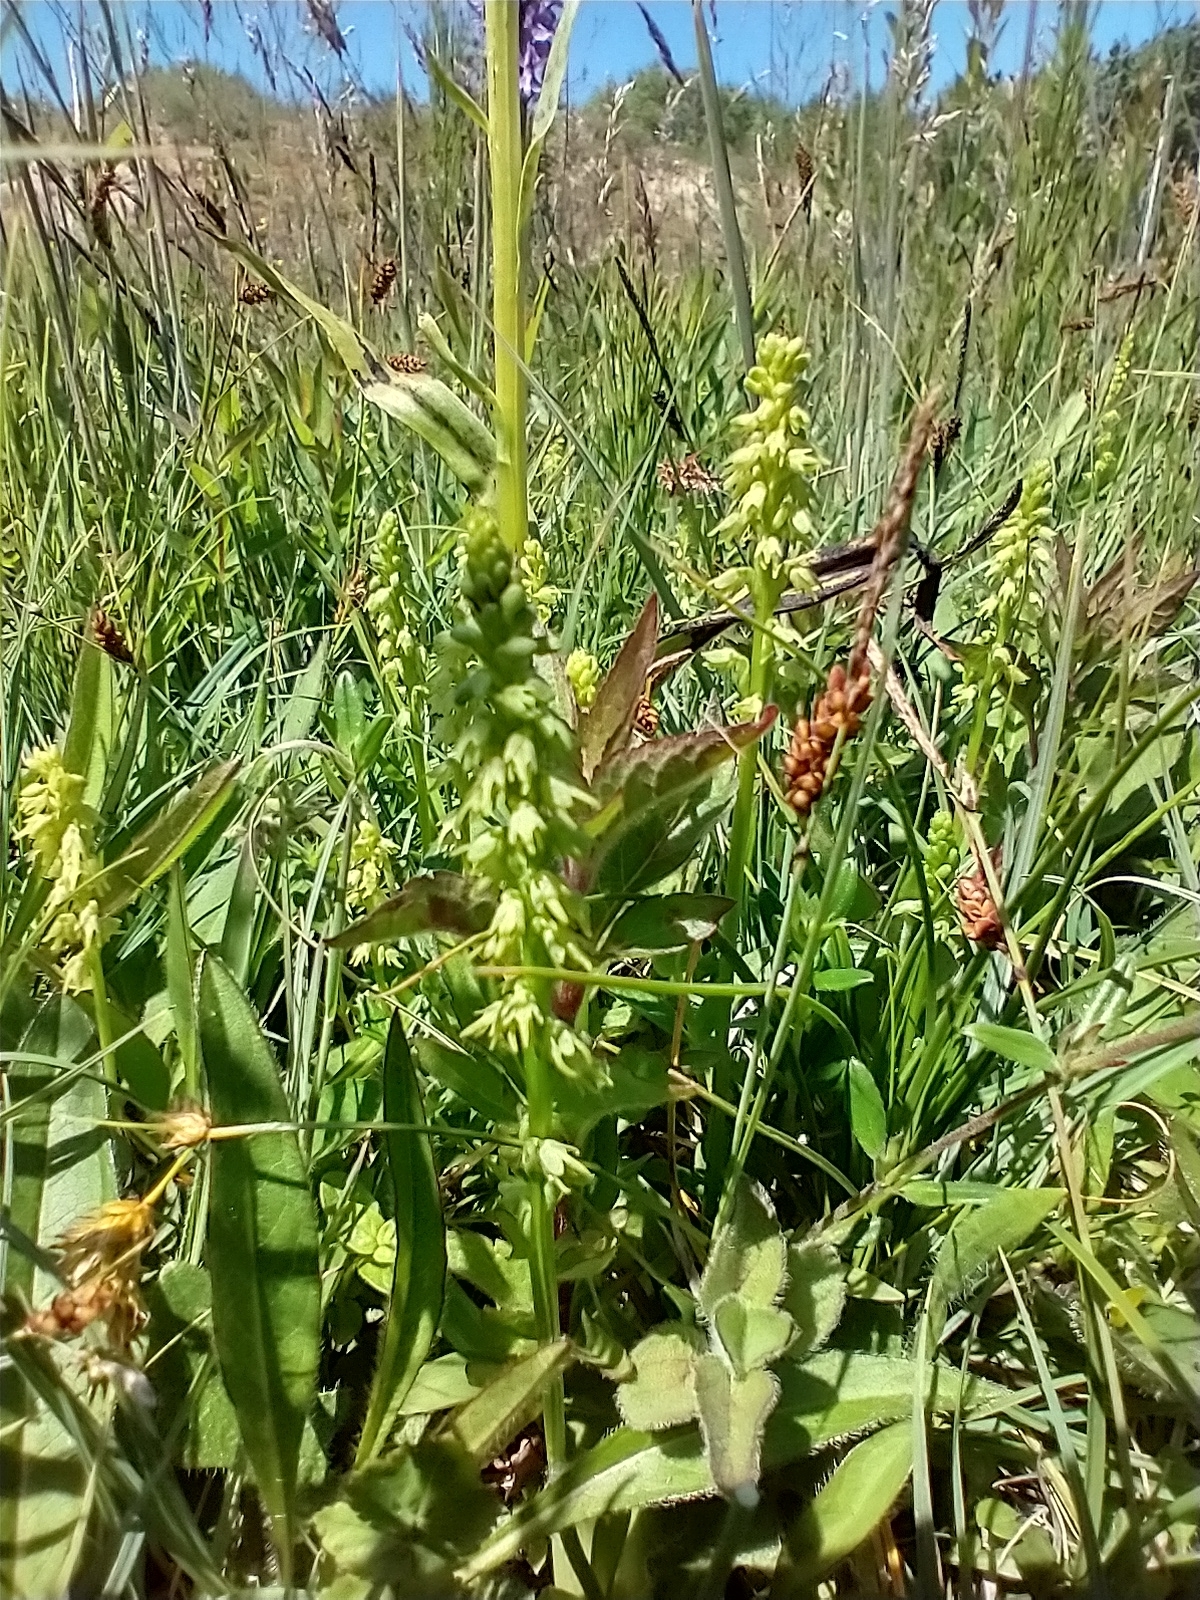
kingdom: Plantae
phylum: Tracheophyta
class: Liliopsida
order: Asparagales
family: Orchidaceae
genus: Herminium
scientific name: Herminium monorchis
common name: Musk orchid
